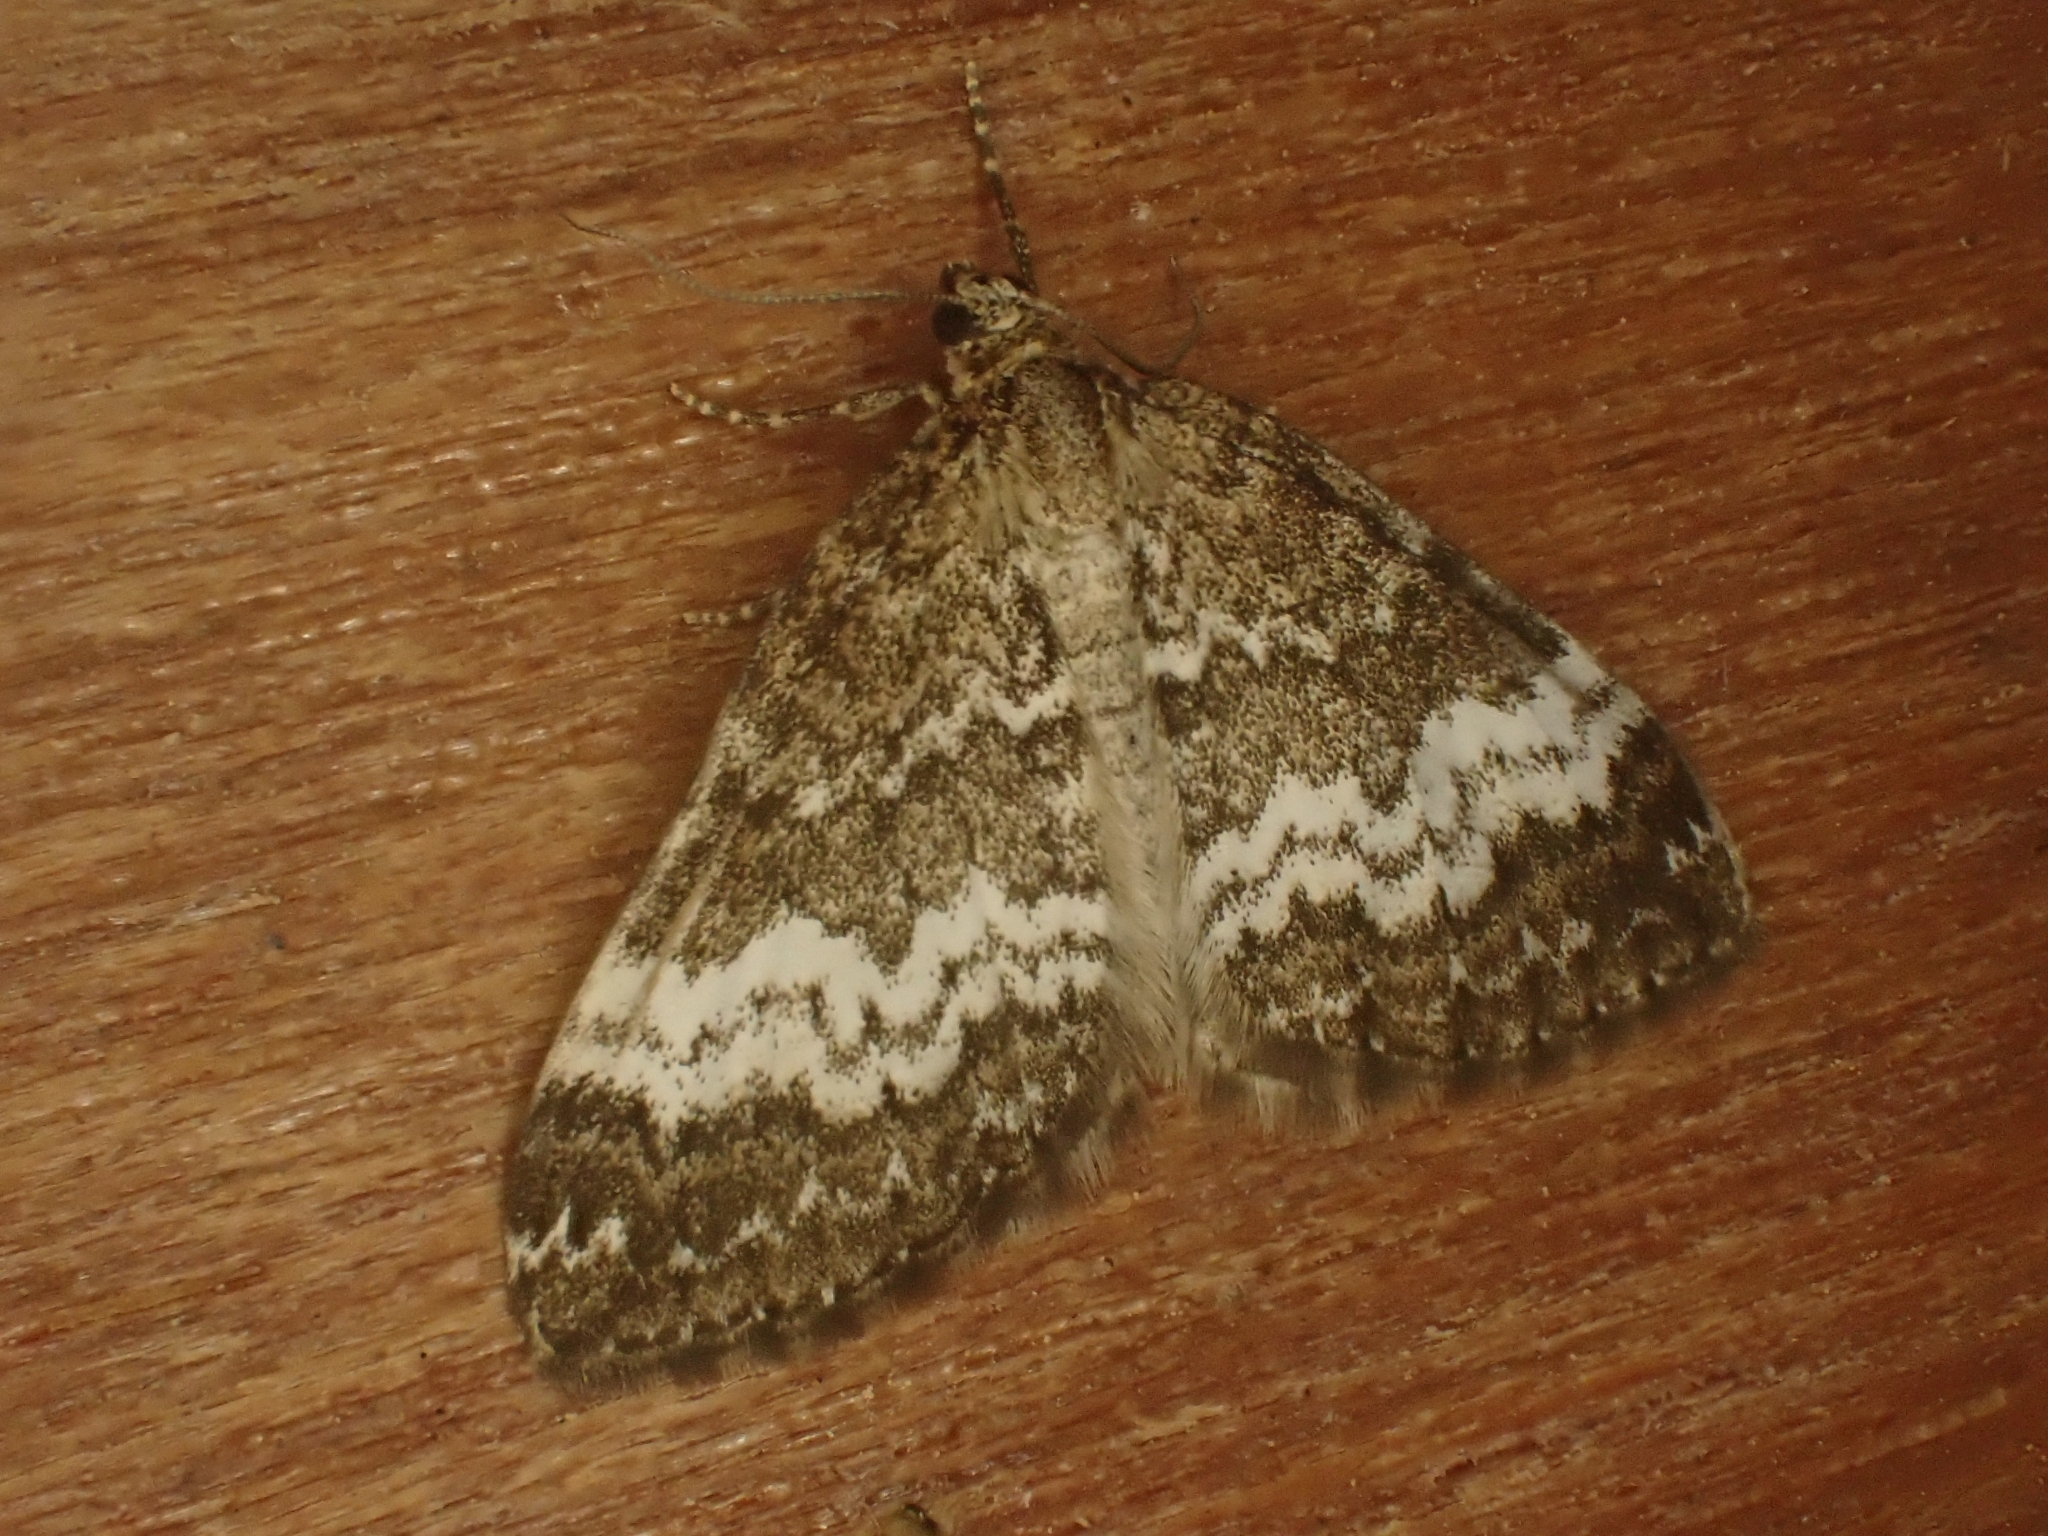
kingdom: Animalia
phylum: Arthropoda
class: Insecta
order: Lepidoptera
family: Geometridae
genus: Perizoma
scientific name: Perizoma affinitata
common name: Rivulet
